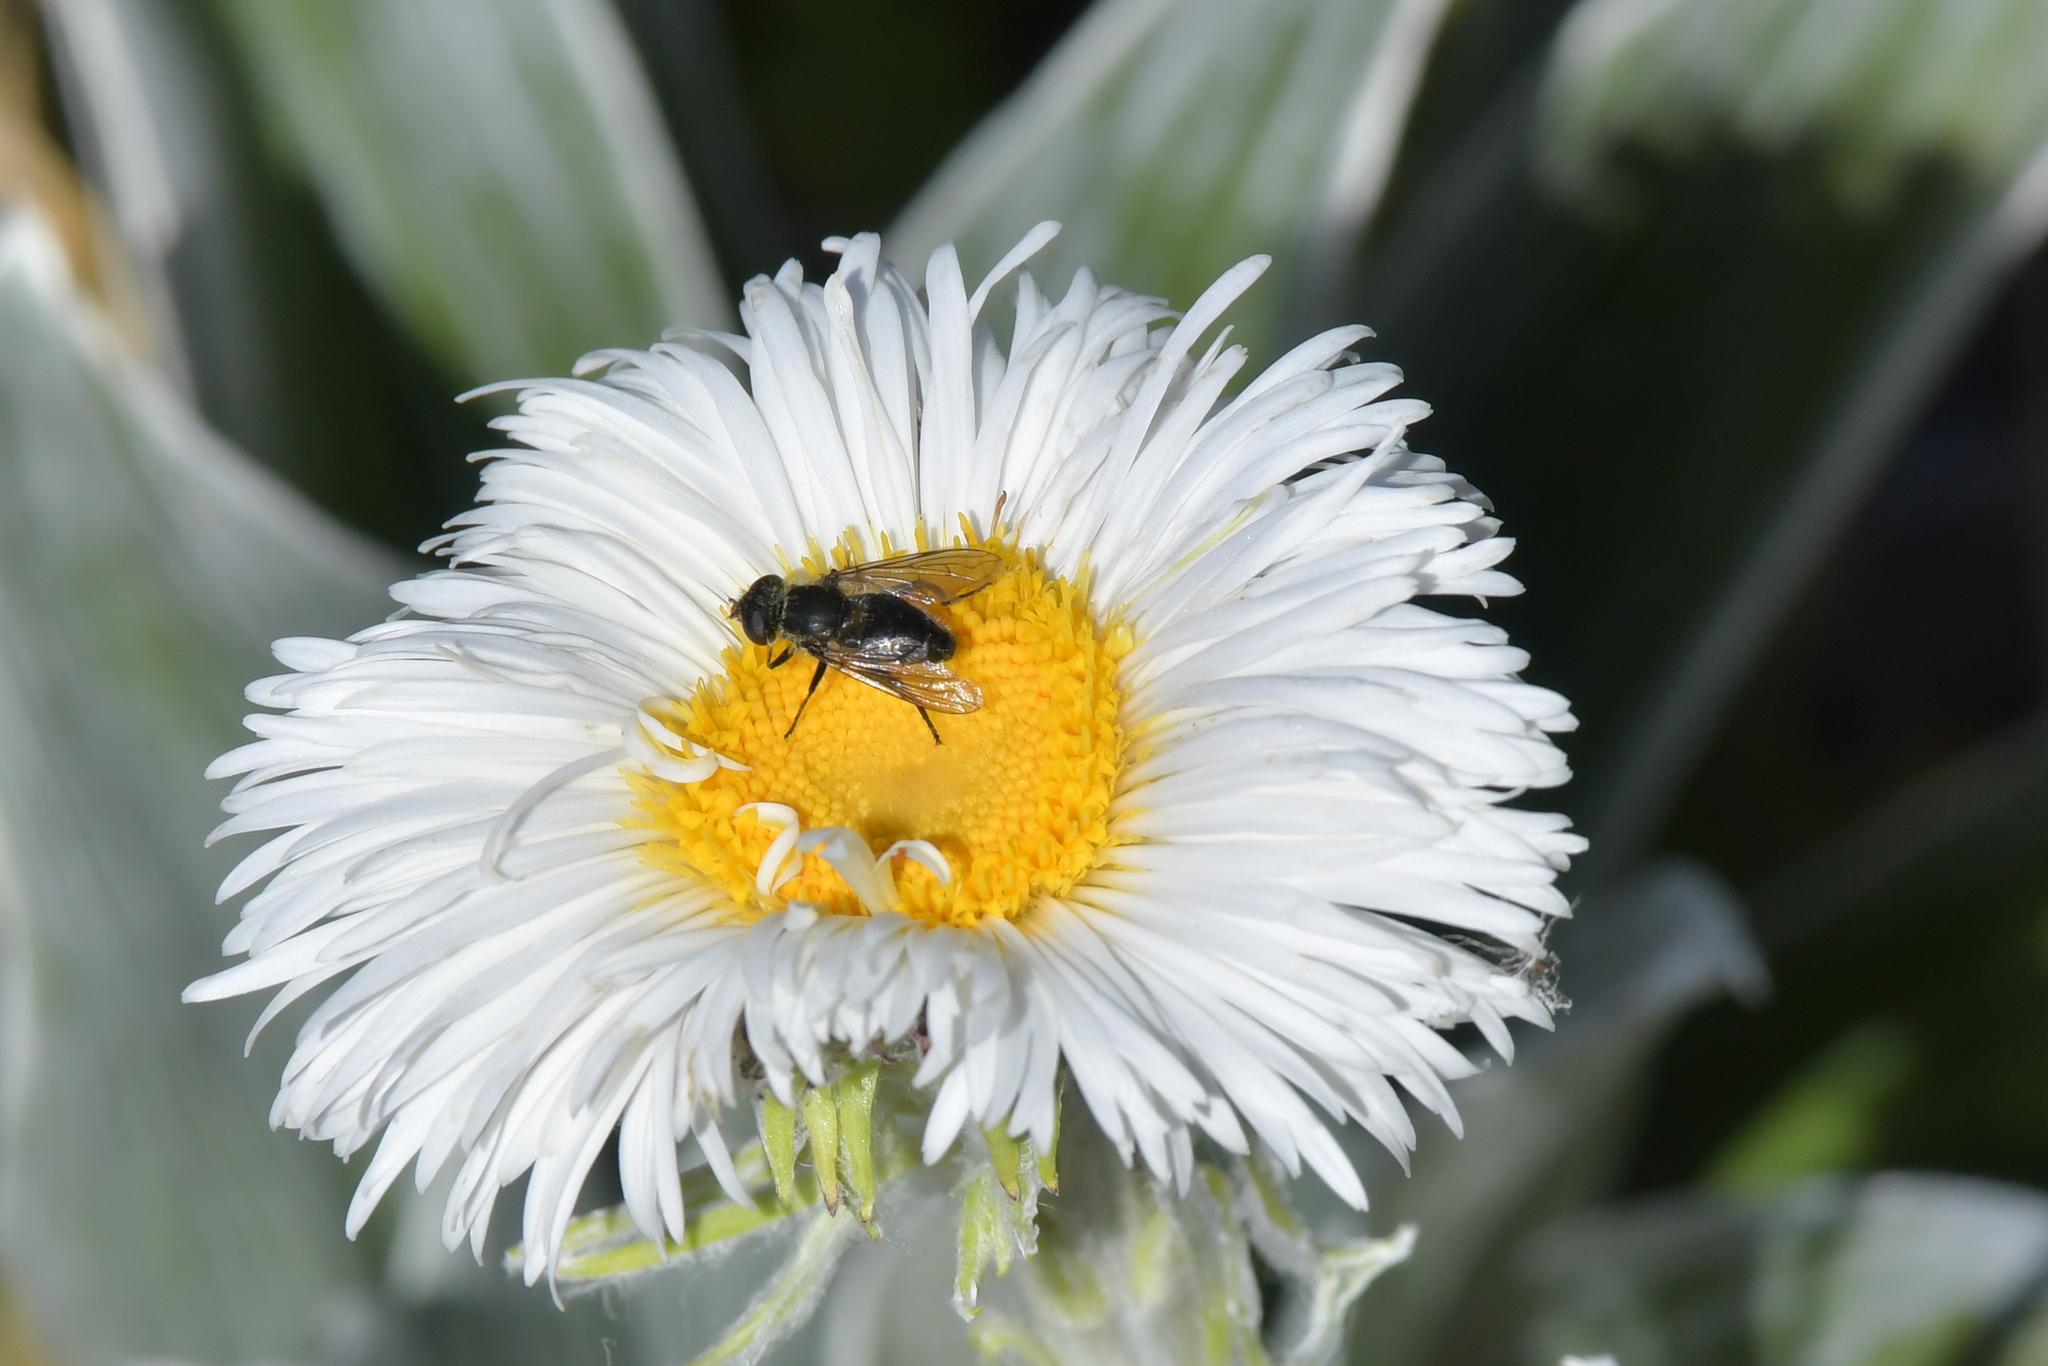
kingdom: Animalia
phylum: Arthropoda
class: Insecta
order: Diptera
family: Syrphidae
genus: Helophilus
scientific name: Helophilus montanus
